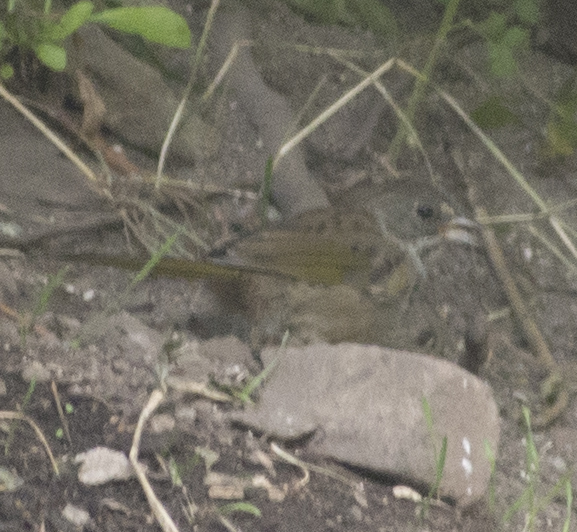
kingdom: Animalia
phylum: Chordata
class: Aves
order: Passeriformes
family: Passerellidae
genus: Pipilo
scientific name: Pipilo chlorurus
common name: Green-tailed towhee
